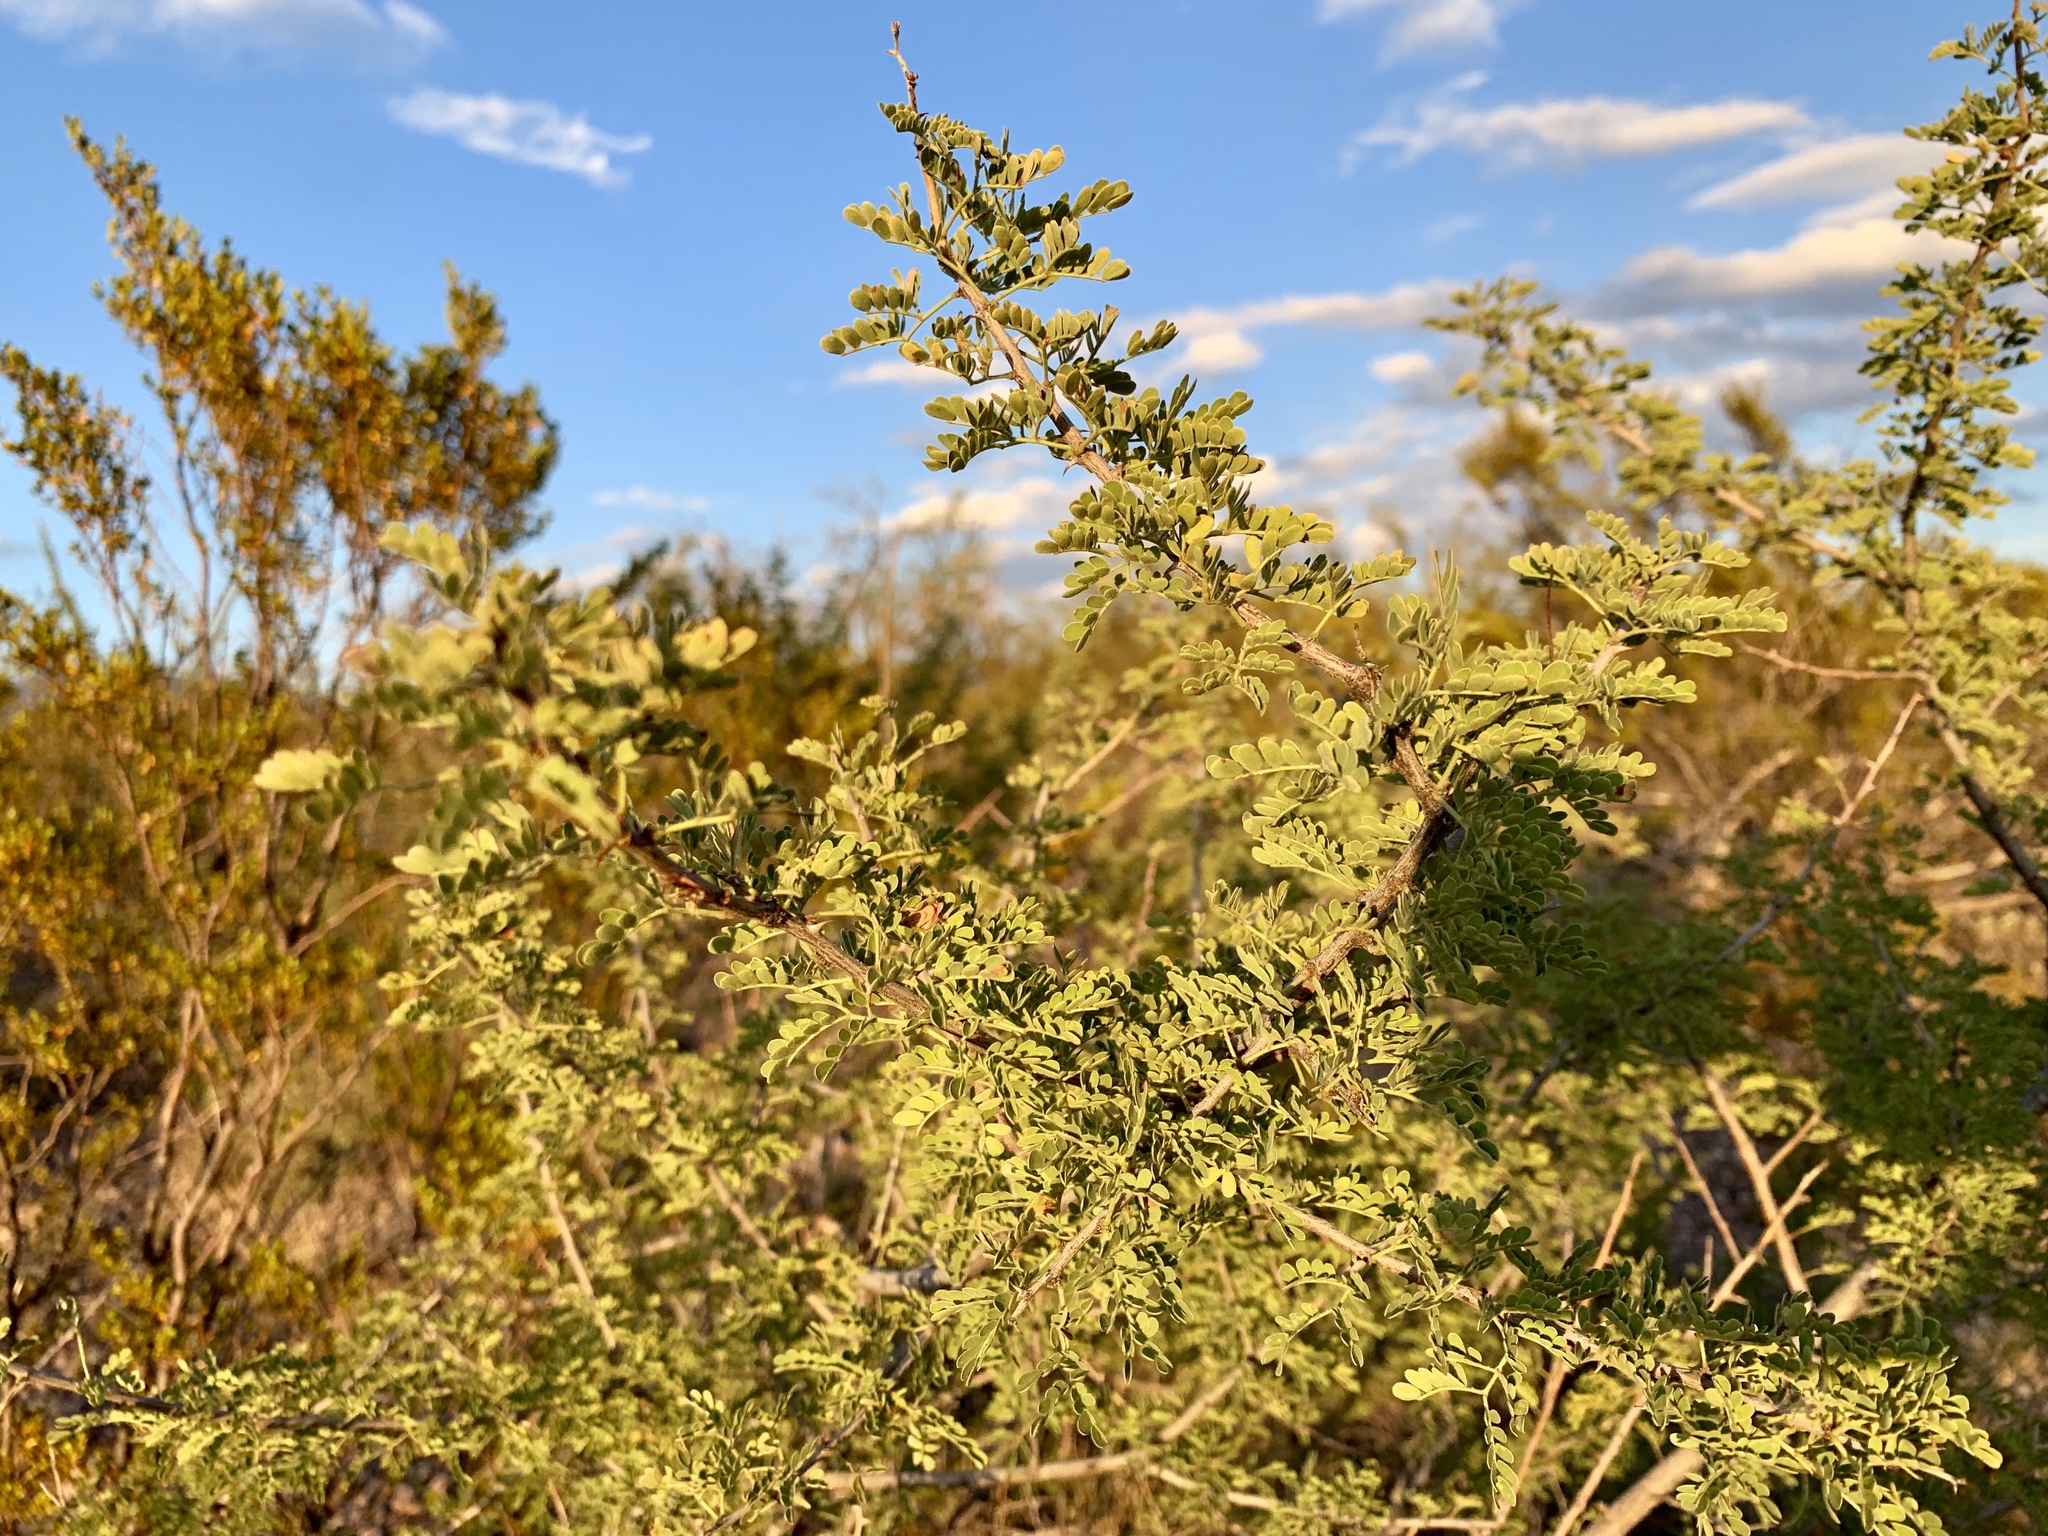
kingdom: Plantae
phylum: Tracheophyta
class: Magnoliopsida
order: Fabales
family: Fabaceae
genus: Senegalia
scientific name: Senegalia greggii
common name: Texas-mimosa
